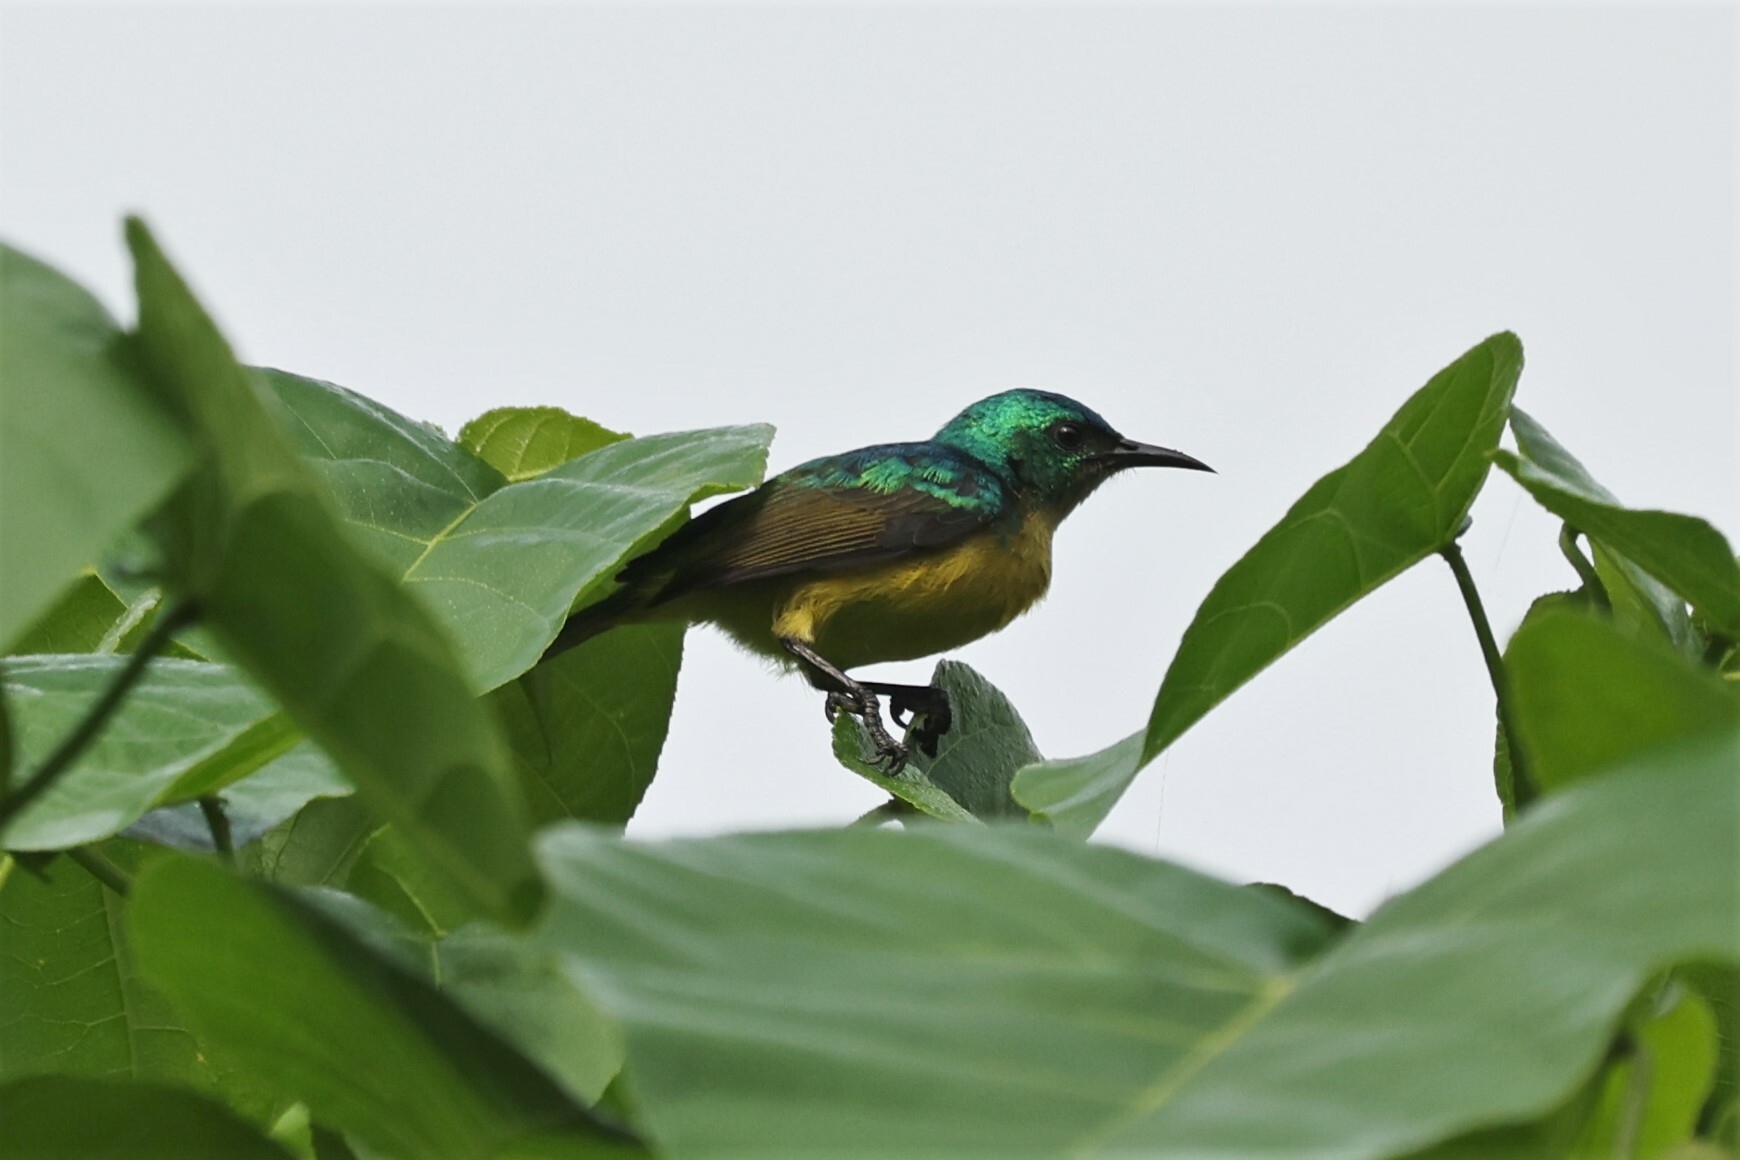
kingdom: Animalia
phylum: Chordata
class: Aves
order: Passeriformes
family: Nectariniidae
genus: Hedydipna
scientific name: Hedydipna collaris
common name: Collared sunbird
